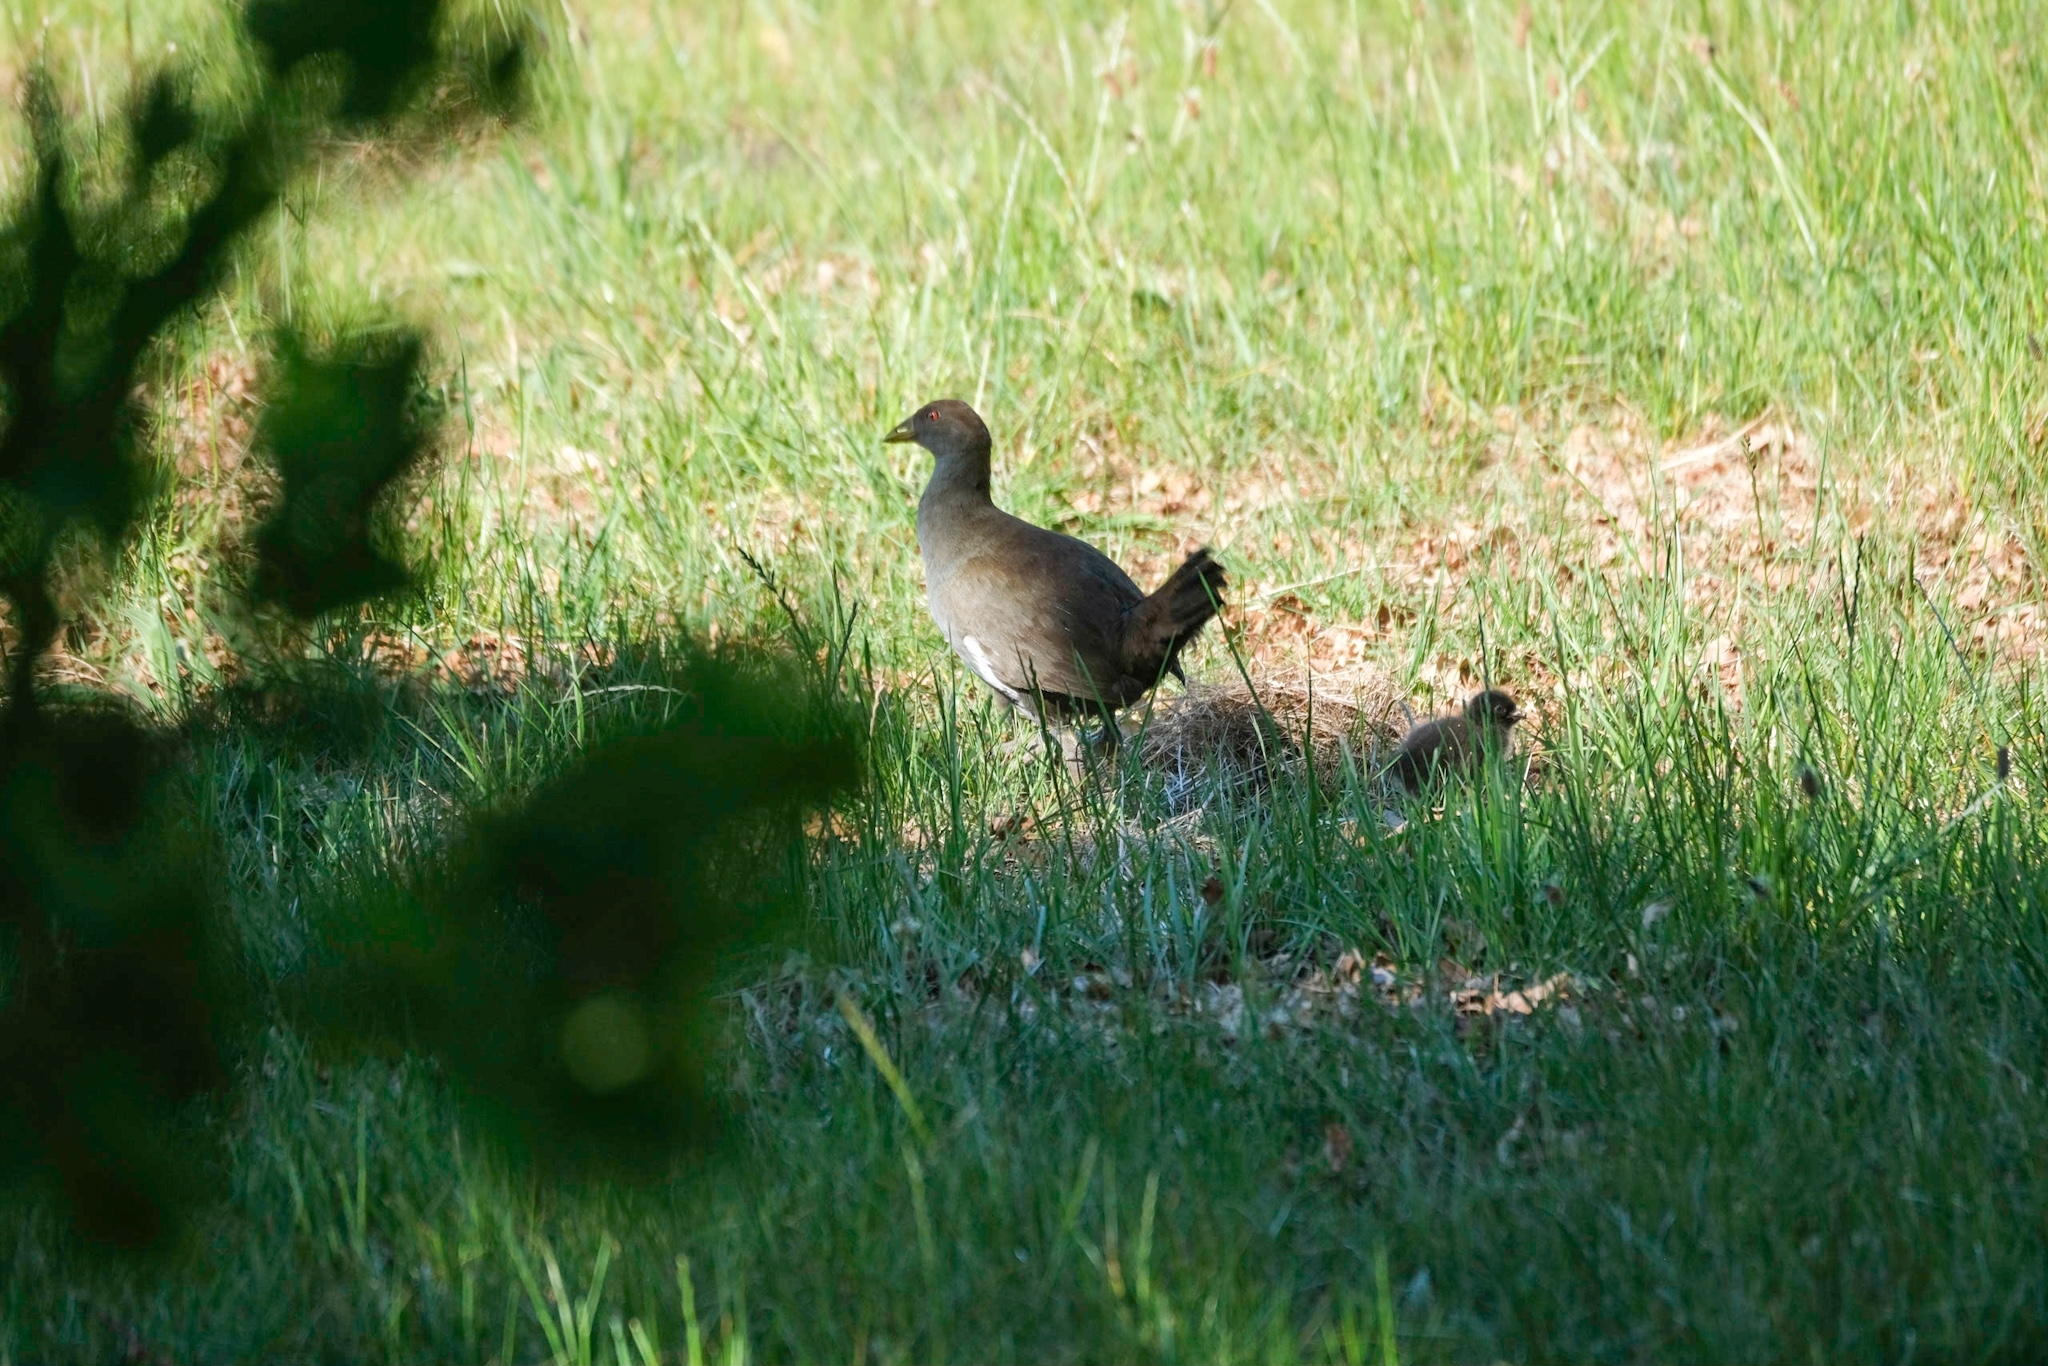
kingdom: Animalia
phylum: Chordata
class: Aves
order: Gruiformes
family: Rallidae
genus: Gallinula
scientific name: Gallinula mortierii
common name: Tasmanian nativehen
